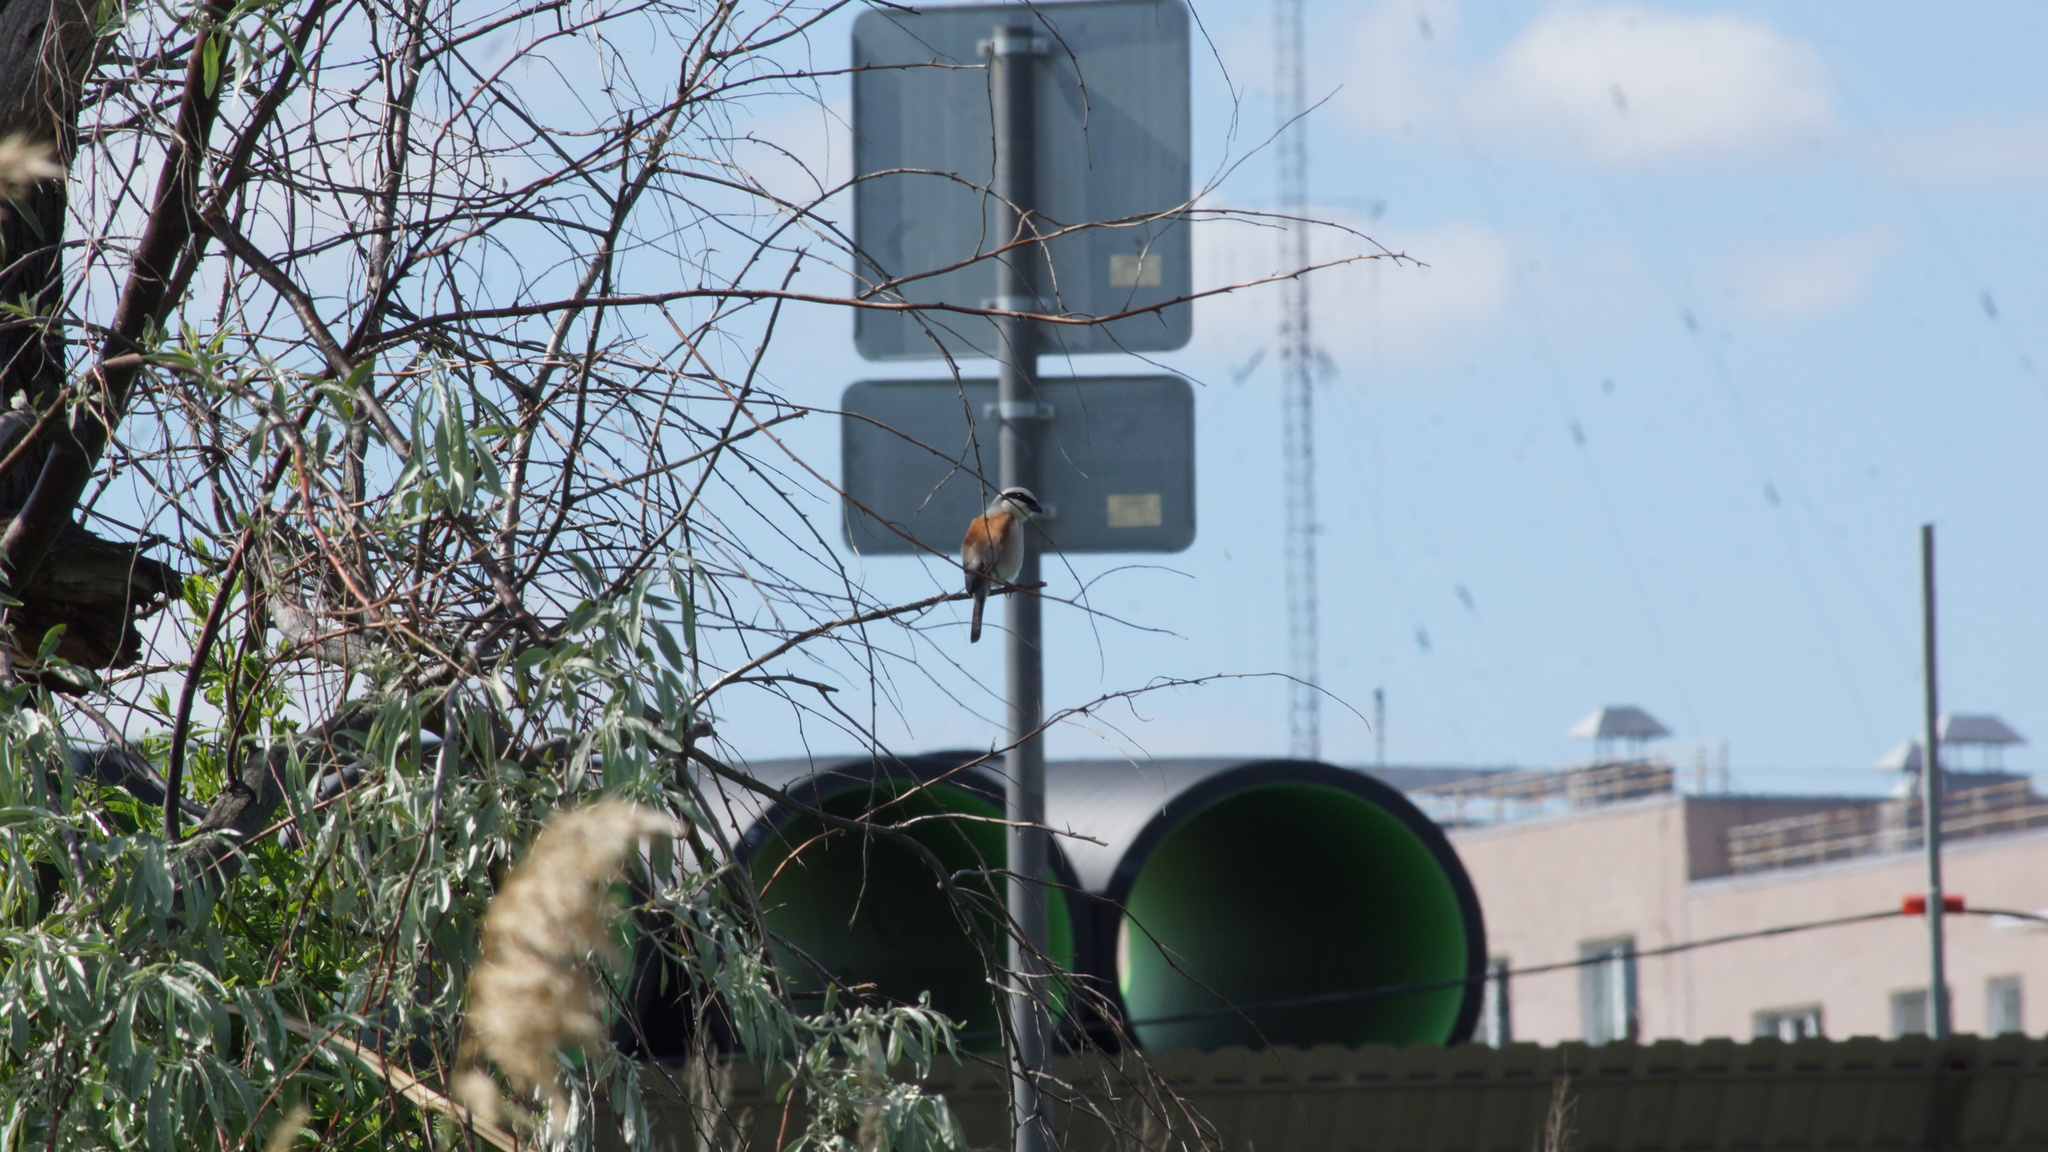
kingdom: Animalia
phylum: Chordata
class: Aves
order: Passeriformes
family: Laniidae
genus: Lanius
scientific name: Lanius collurio
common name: Red-backed shrike
